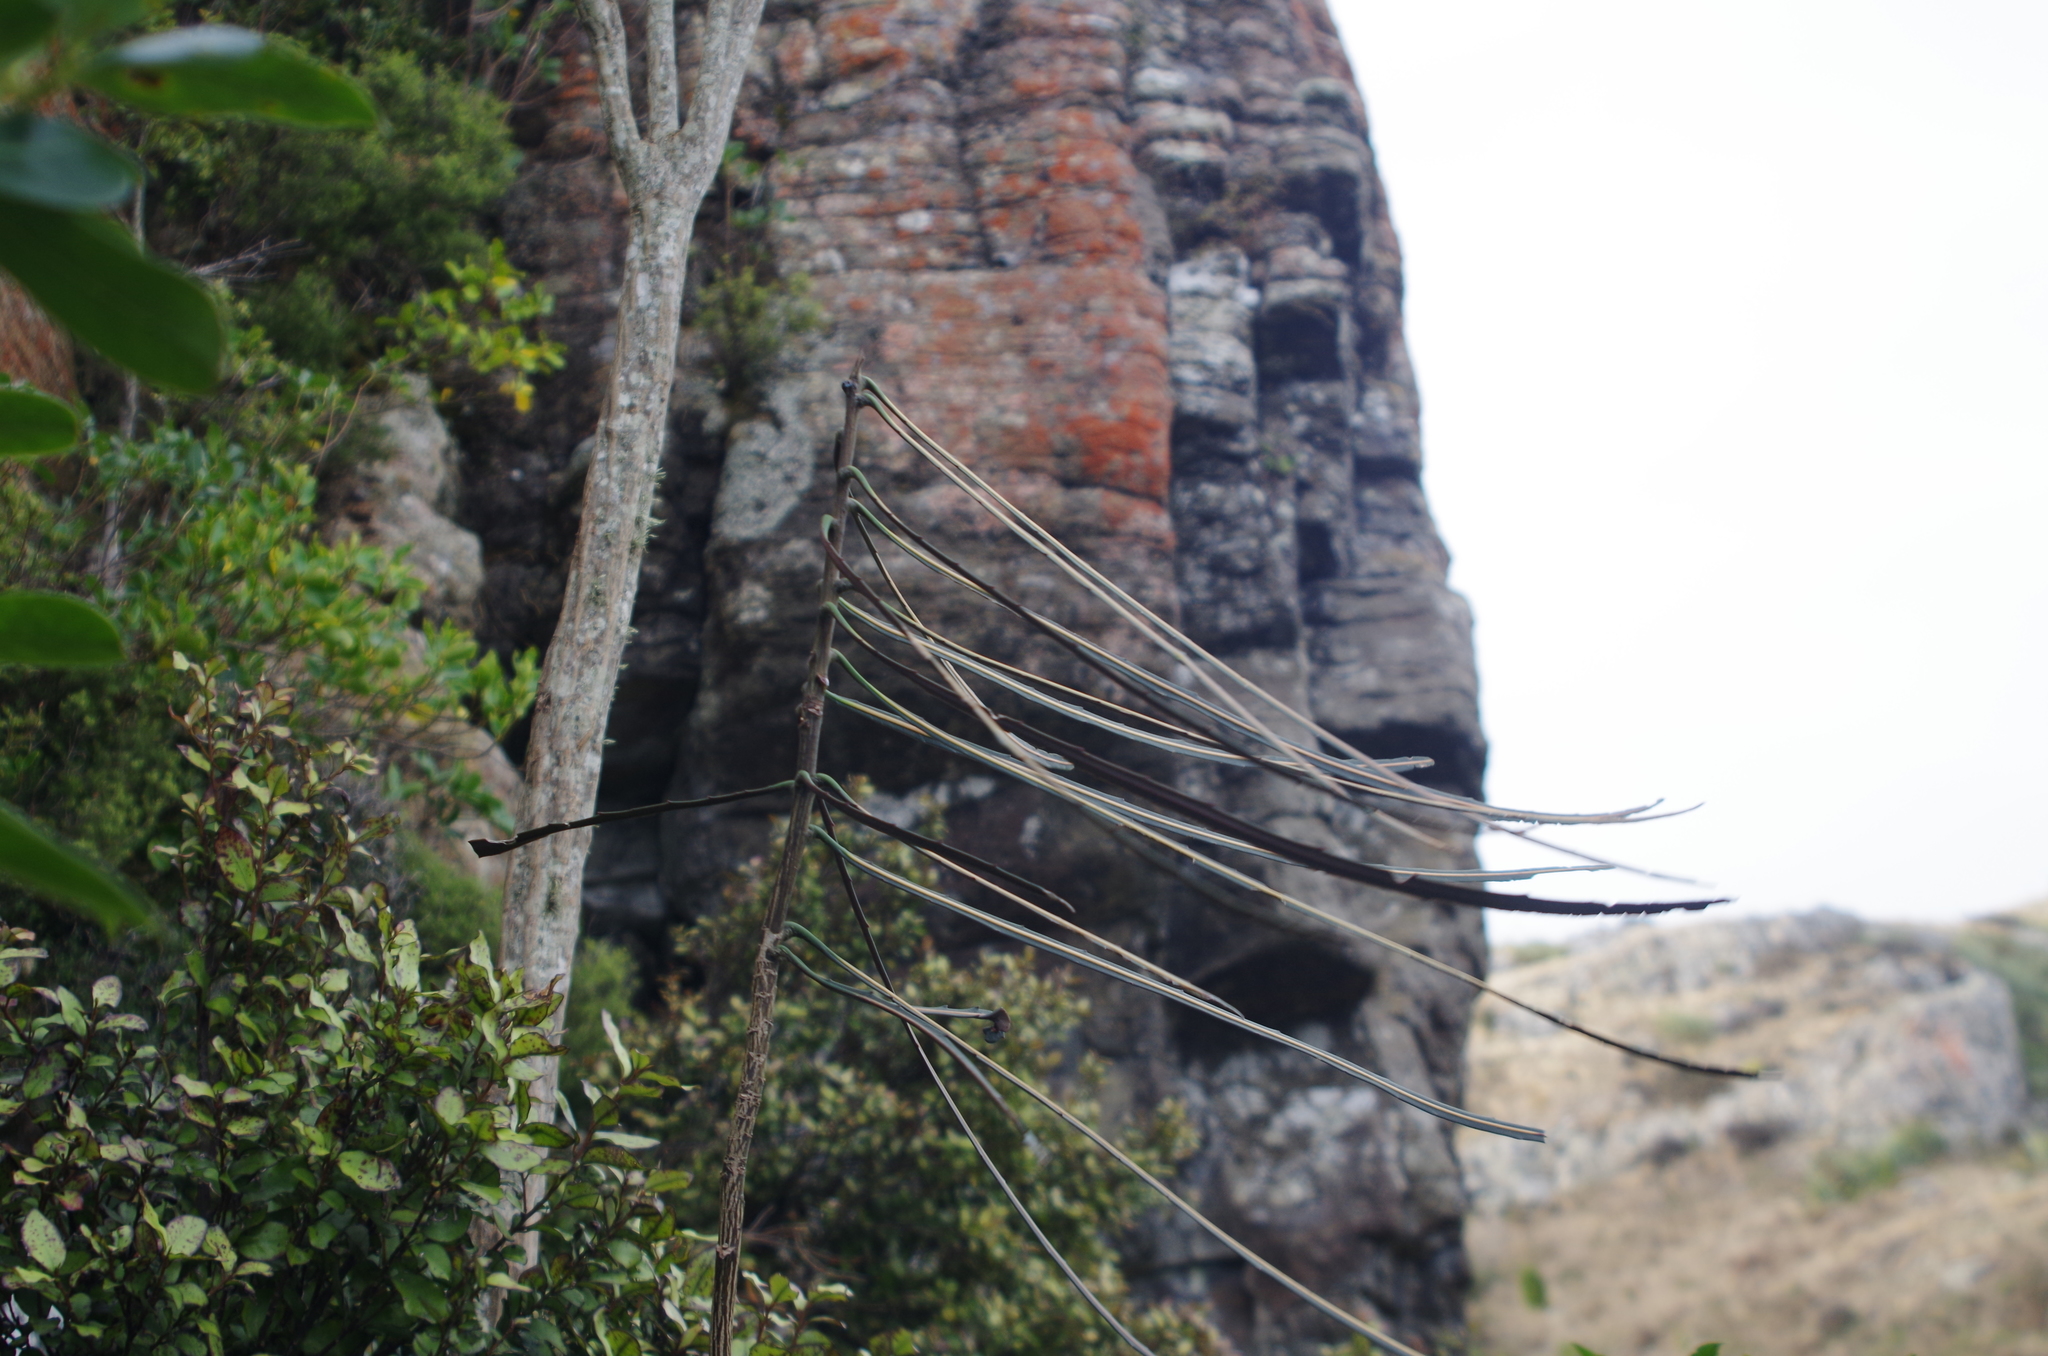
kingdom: Plantae
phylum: Tracheophyta
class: Magnoliopsida
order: Apiales
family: Araliaceae
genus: Pseudopanax
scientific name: Pseudopanax crassifolius
